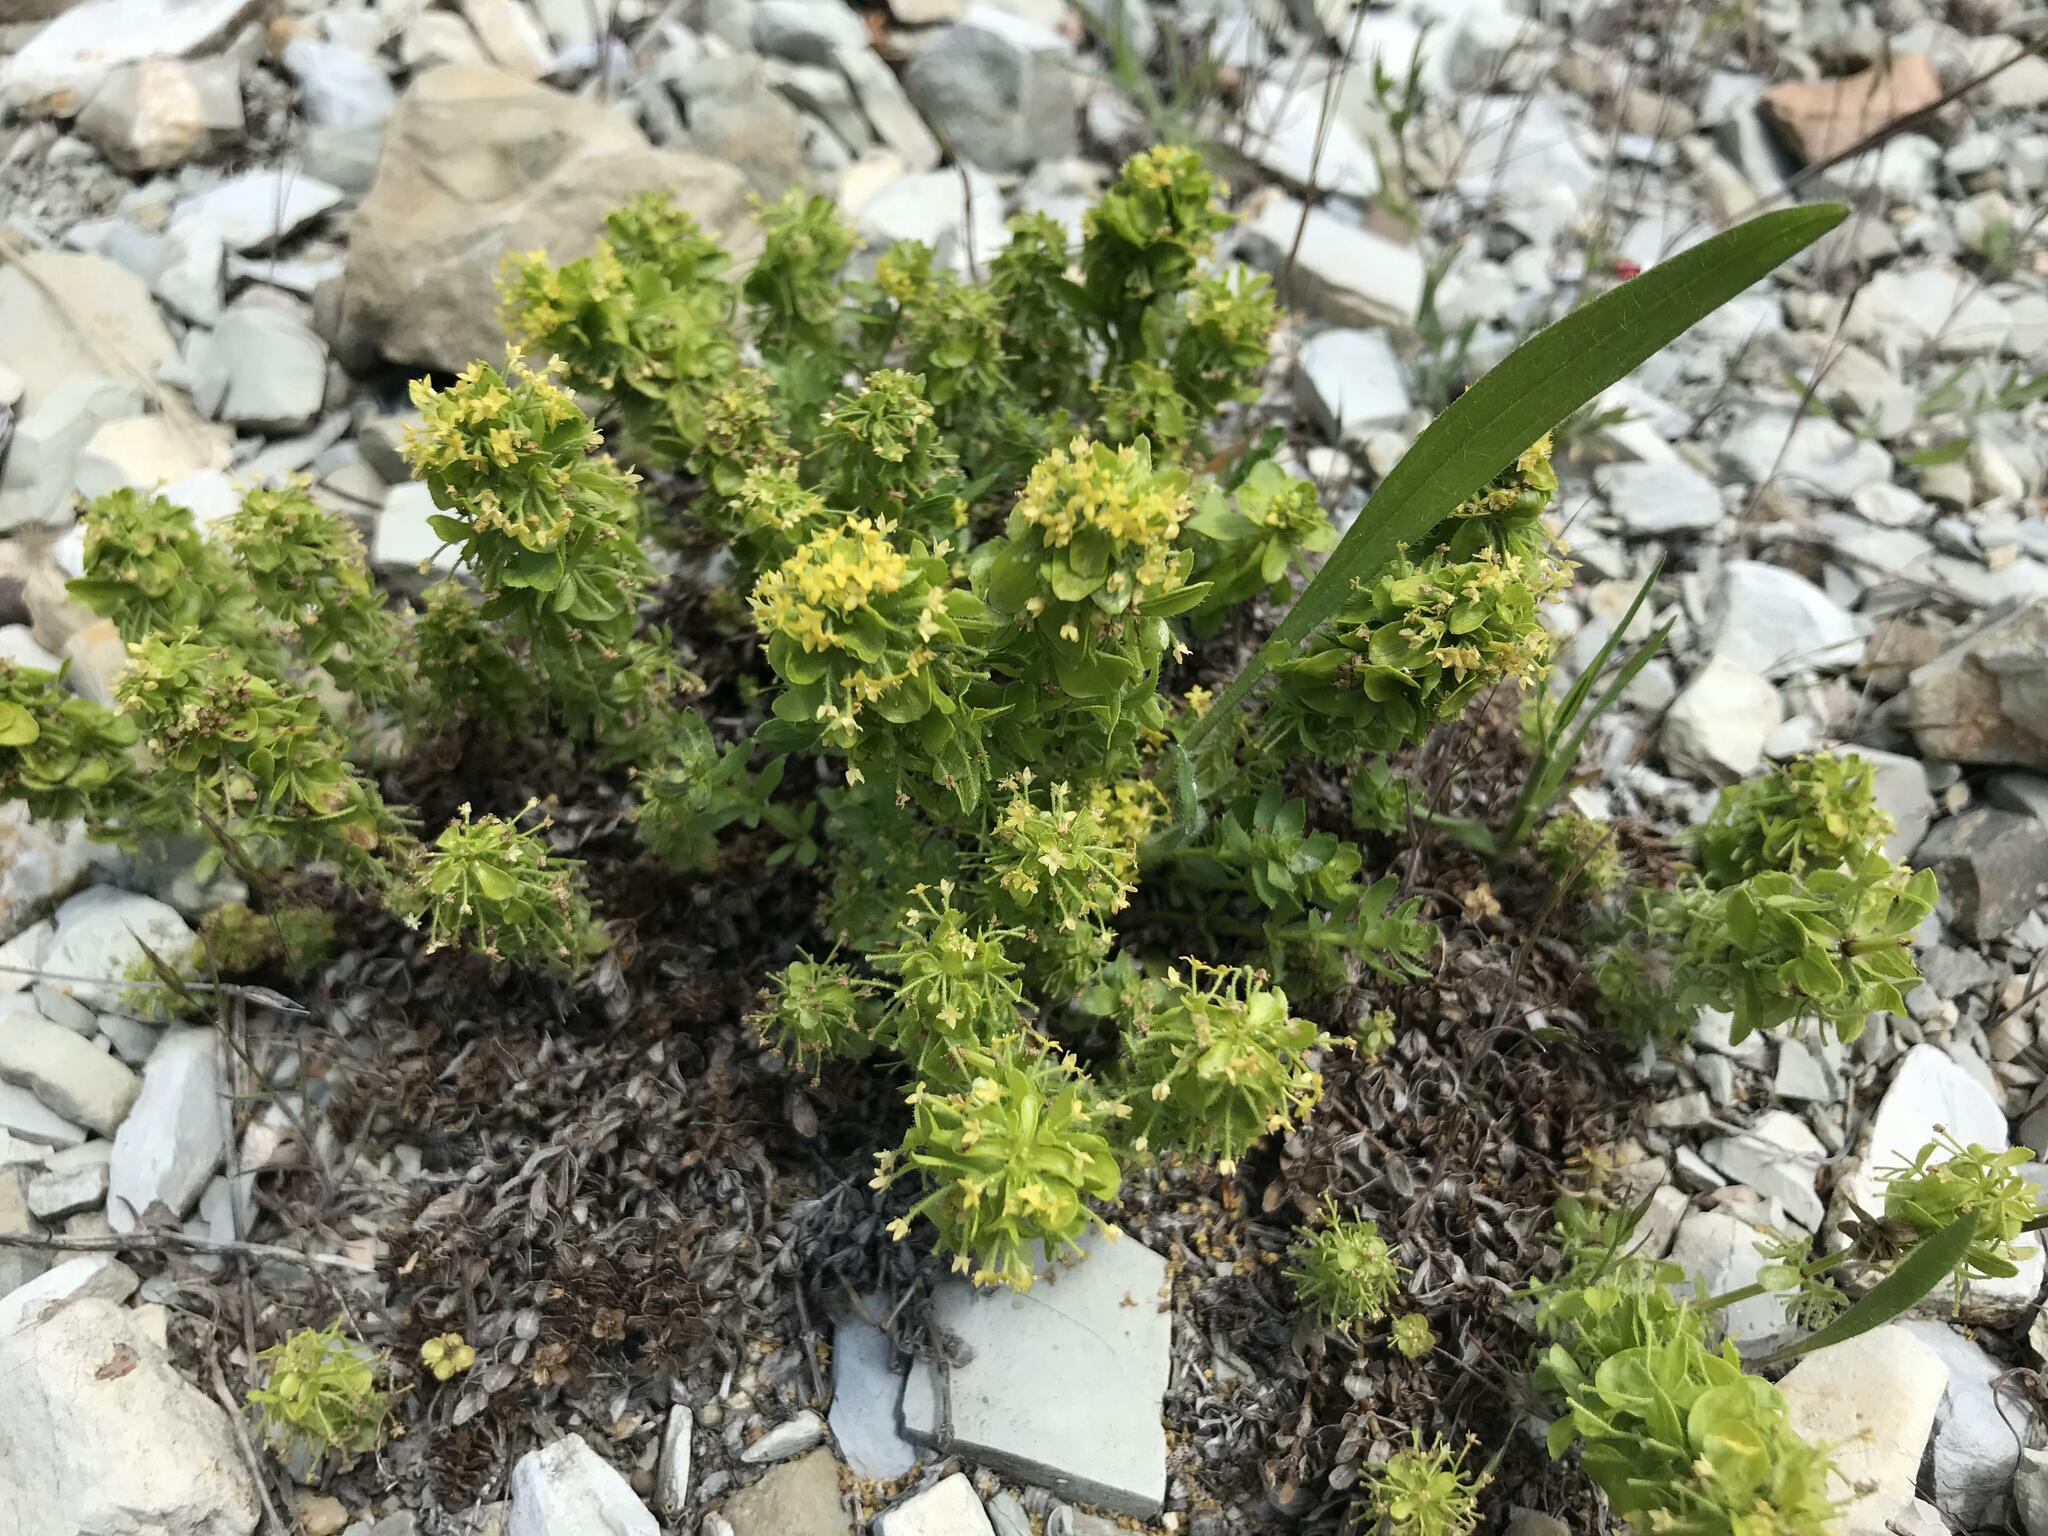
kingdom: Plantae
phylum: Tracheophyta
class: Magnoliopsida
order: Gentianales
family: Rubiaceae
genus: Cruciata
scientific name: Cruciata taurica
